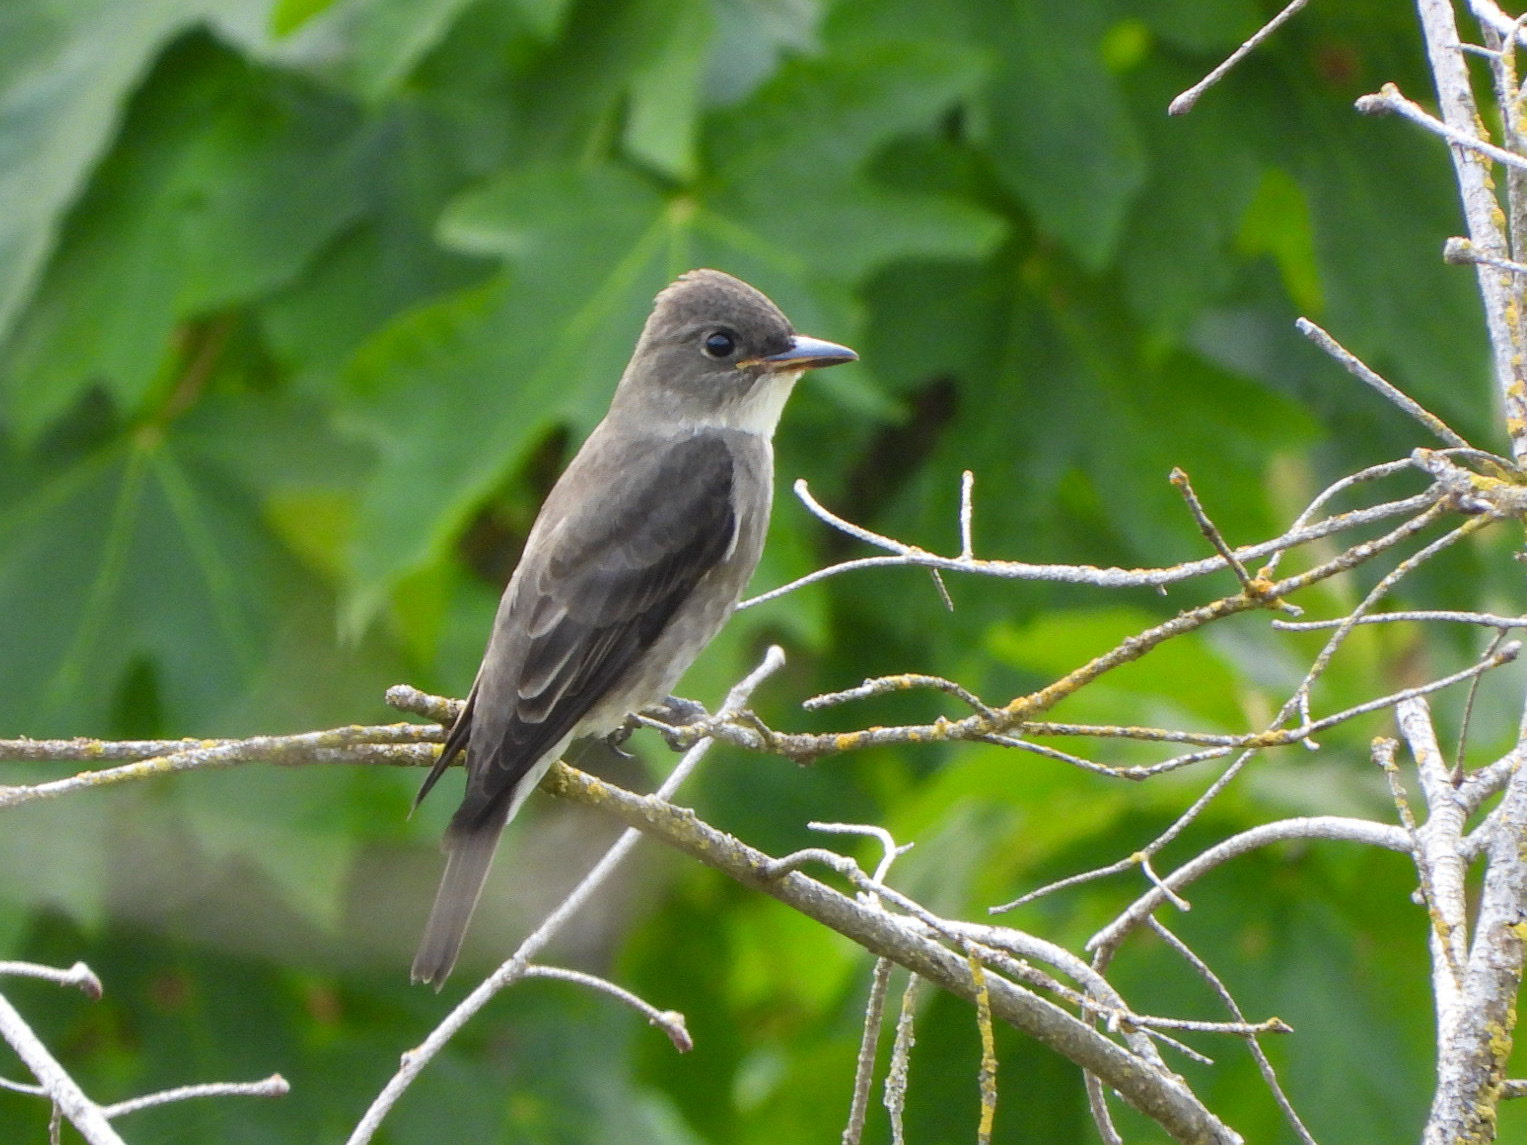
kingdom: Animalia
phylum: Chordata
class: Aves
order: Passeriformes
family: Tyrannidae
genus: Contopus
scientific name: Contopus cooperi
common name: Olive-sided flycatcher
